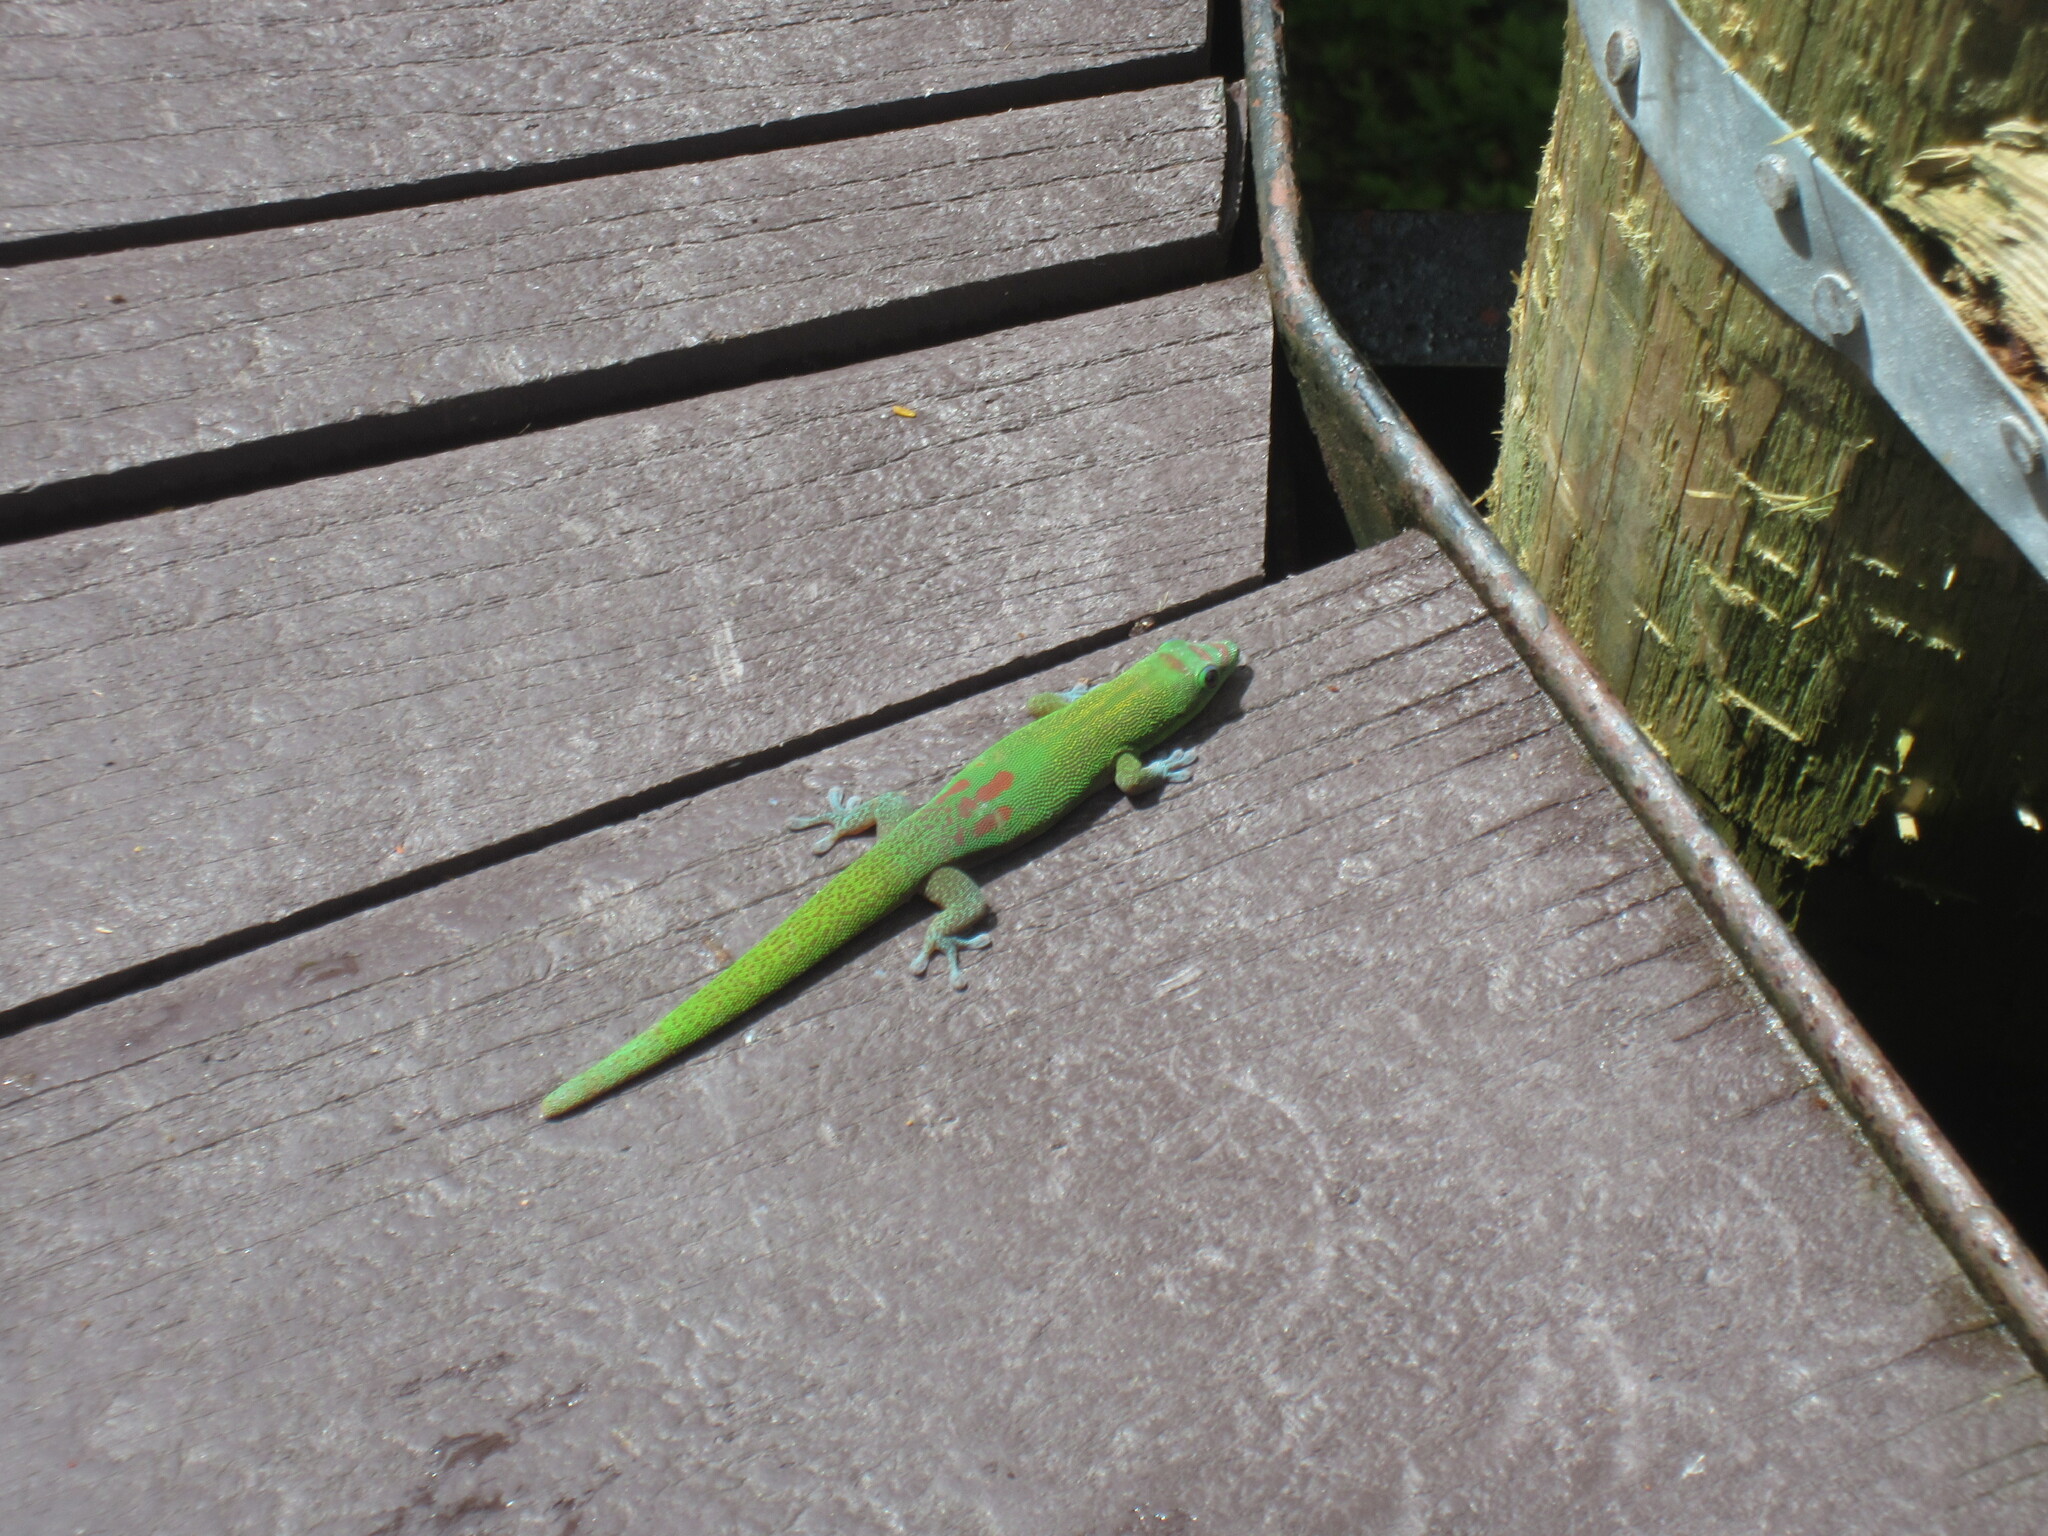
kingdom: Animalia
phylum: Chordata
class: Squamata
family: Gekkonidae
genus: Phelsuma
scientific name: Phelsuma laticauda
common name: Gold dust day gecko
